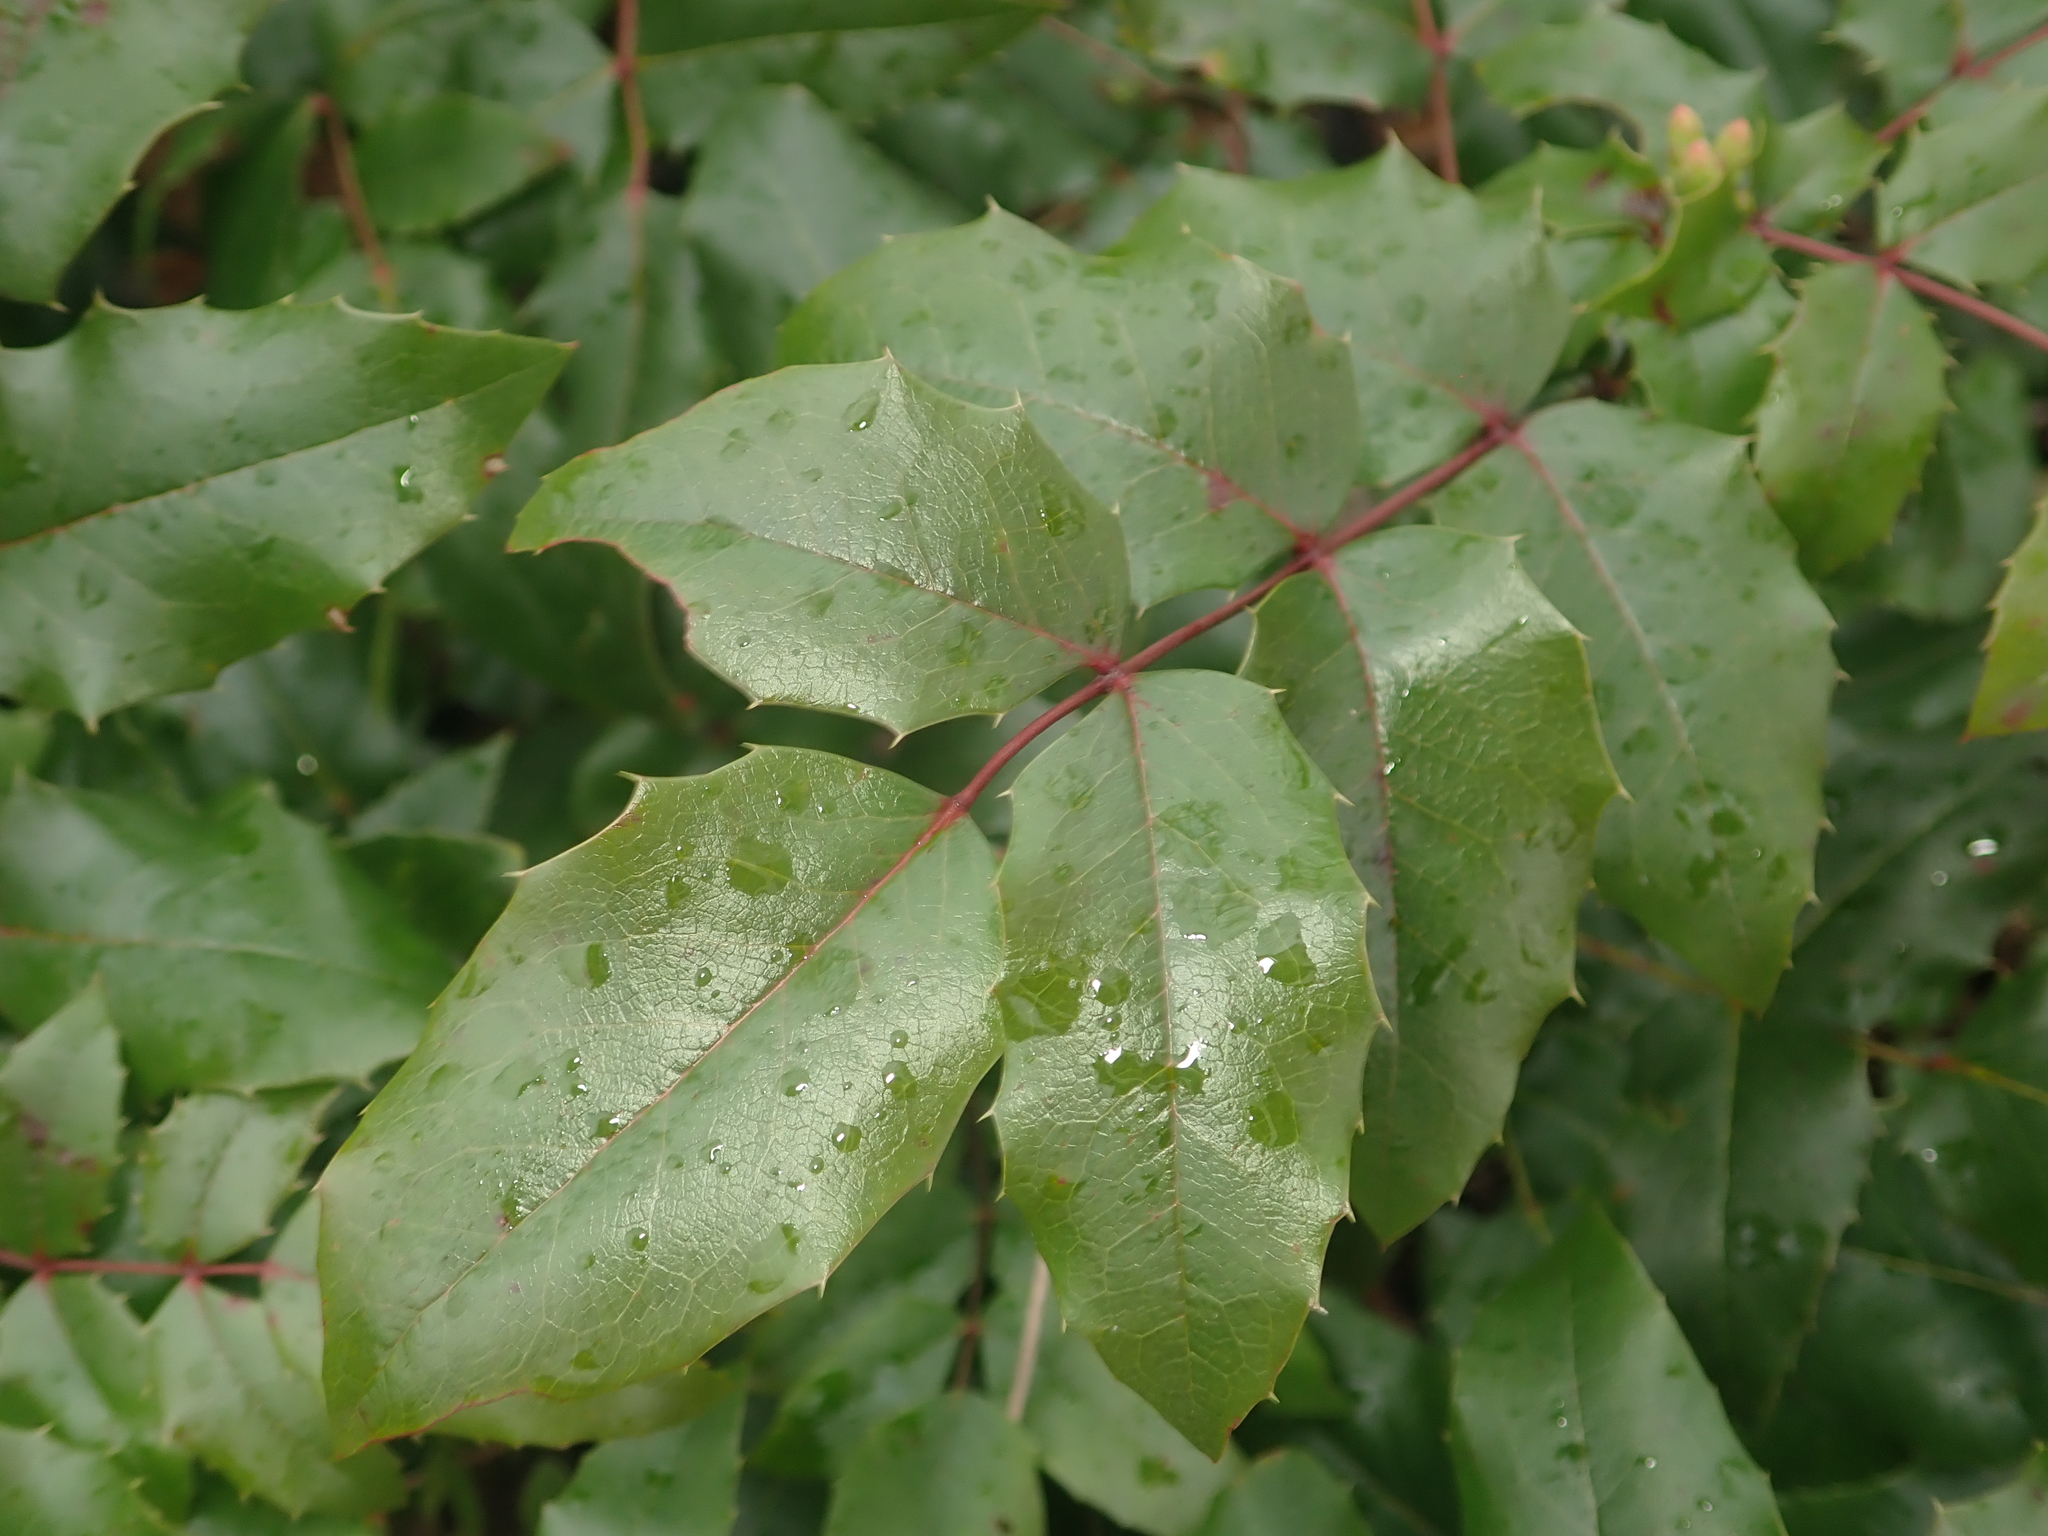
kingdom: Plantae
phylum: Tracheophyta
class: Magnoliopsida
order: Ranunculales
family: Berberidaceae
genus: Mahonia
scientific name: Mahonia aquifolium
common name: Oregon-grape
